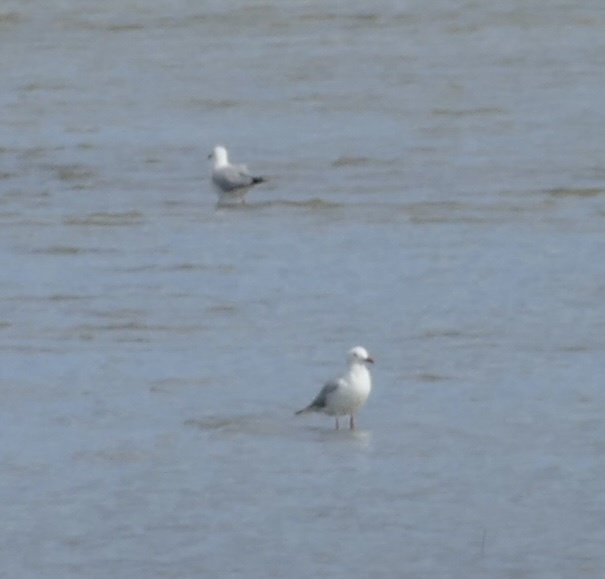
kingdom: Animalia
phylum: Chordata
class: Aves
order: Charadriiformes
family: Laridae
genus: Chroicocephalus
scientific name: Chroicocephalus novaehollandiae
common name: Silver gull
